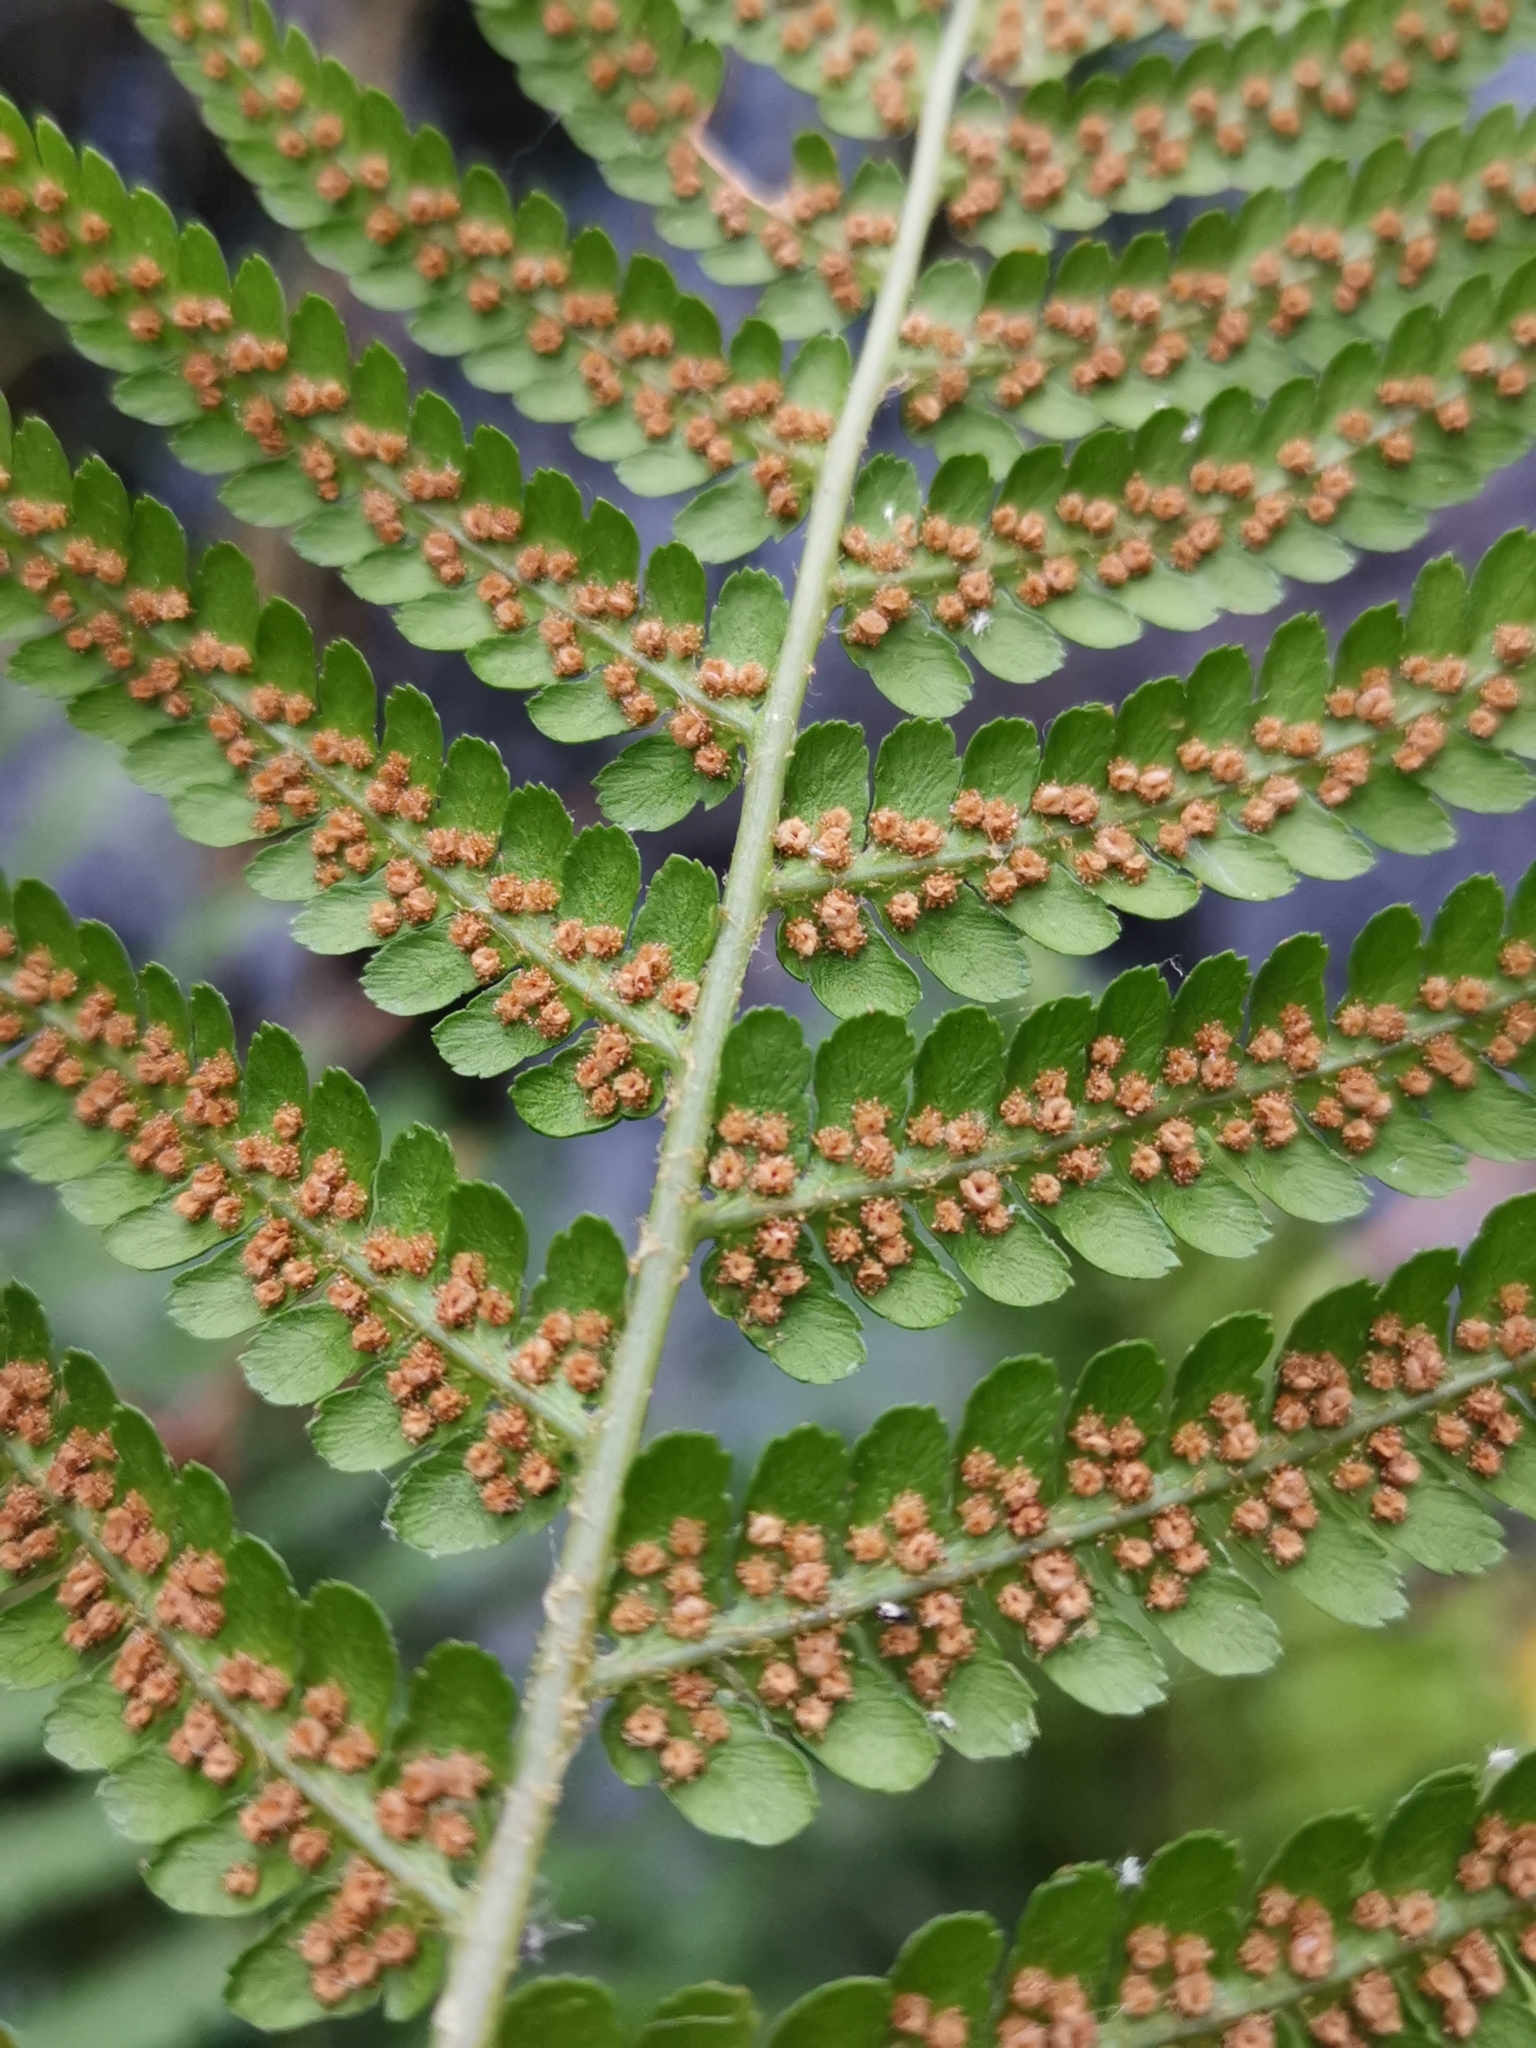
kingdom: Plantae
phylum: Tracheophyta
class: Polypodiopsida
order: Polypodiales
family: Dryopteridaceae
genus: Dryopteris
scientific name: Dryopteris filix-mas
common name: Male fern
